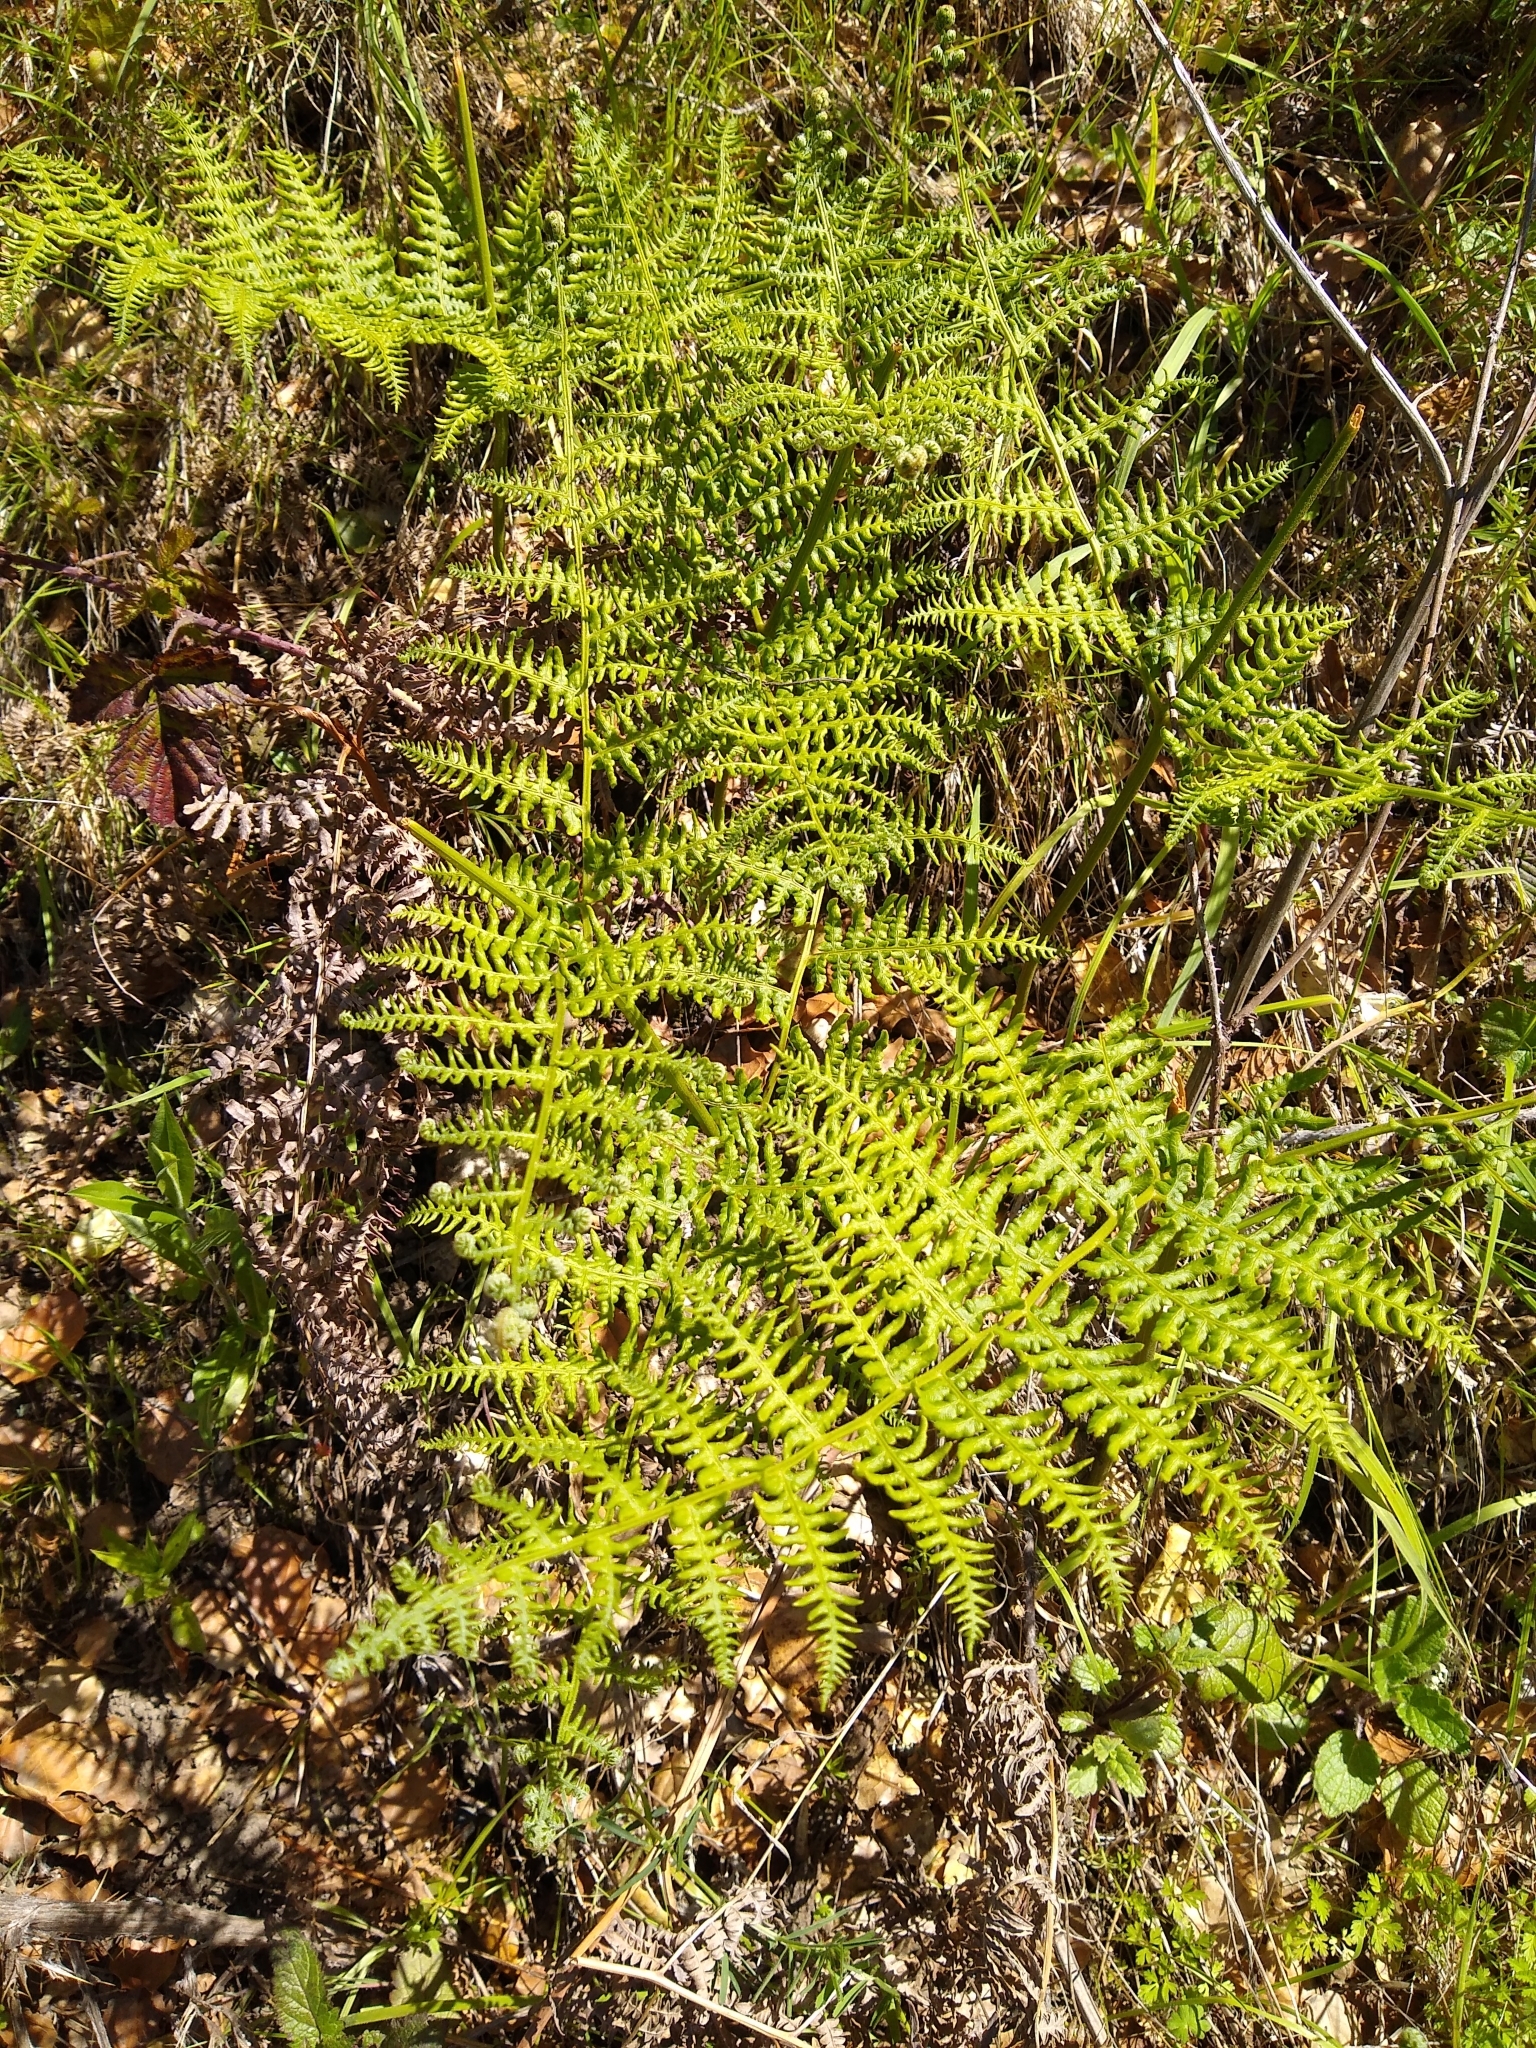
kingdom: Plantae
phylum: Tracheophyta
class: Polypodiopsida
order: Polypodiales
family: Dennstaedtiaceae
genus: Pteridium
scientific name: Pteridium aquilinum
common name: Bracken
